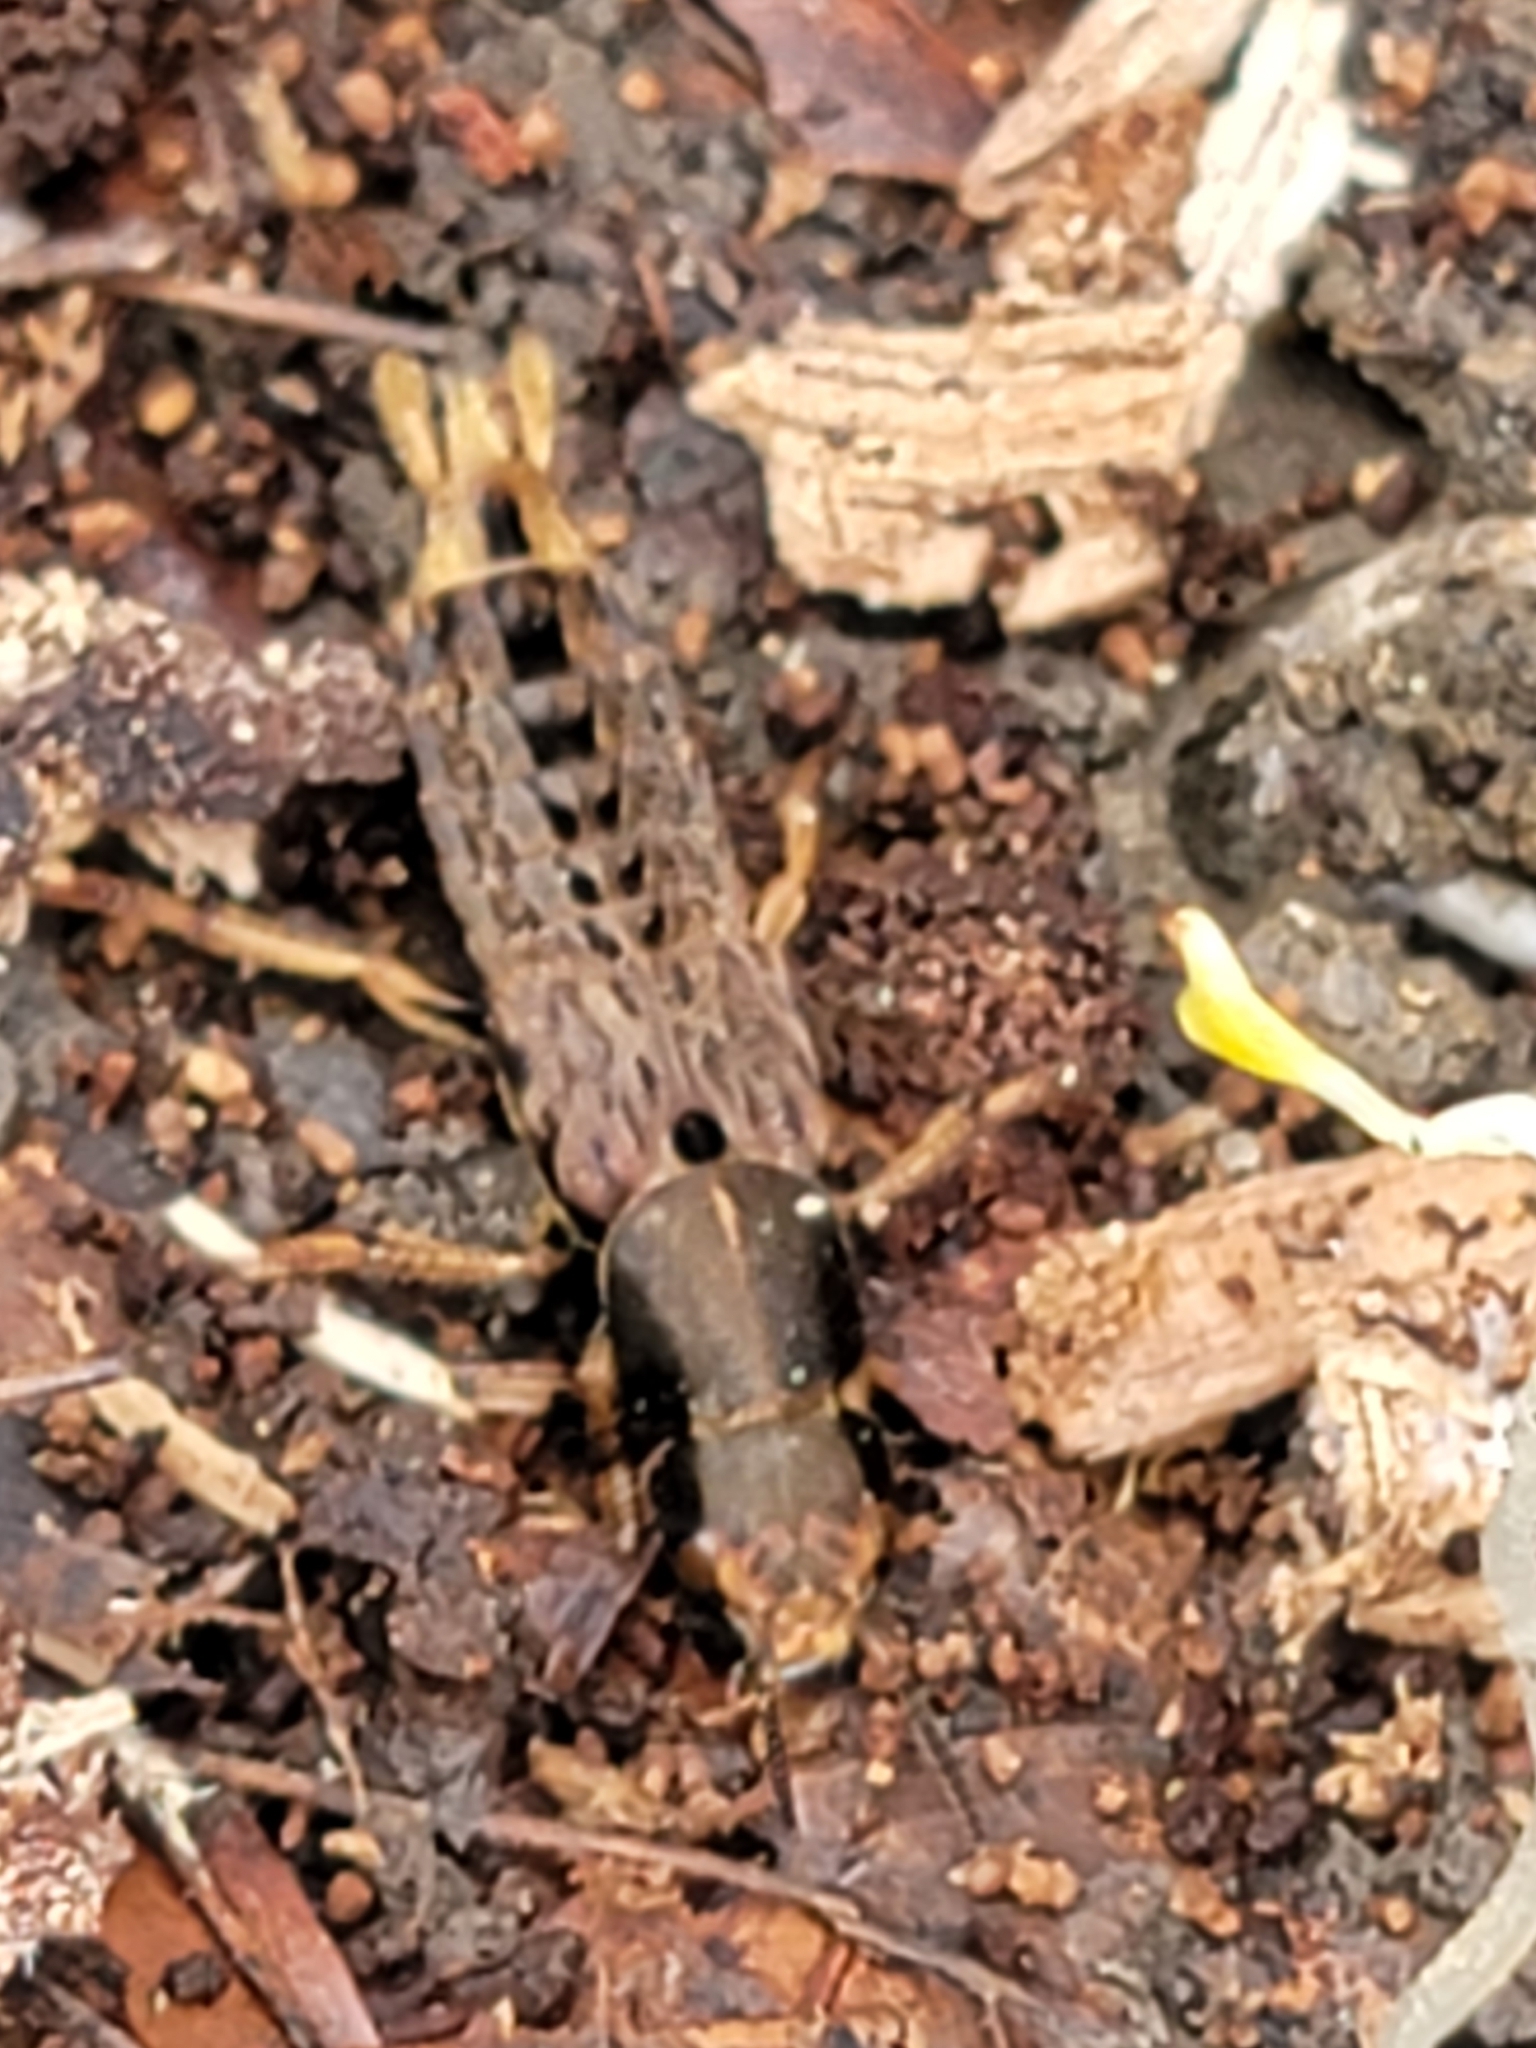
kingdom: Animalia
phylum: Arthropoda
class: Insecta
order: Coleoptera
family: Staphylinidae
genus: Platydracus
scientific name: Platydracus maculosus
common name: Brown rove beetle
